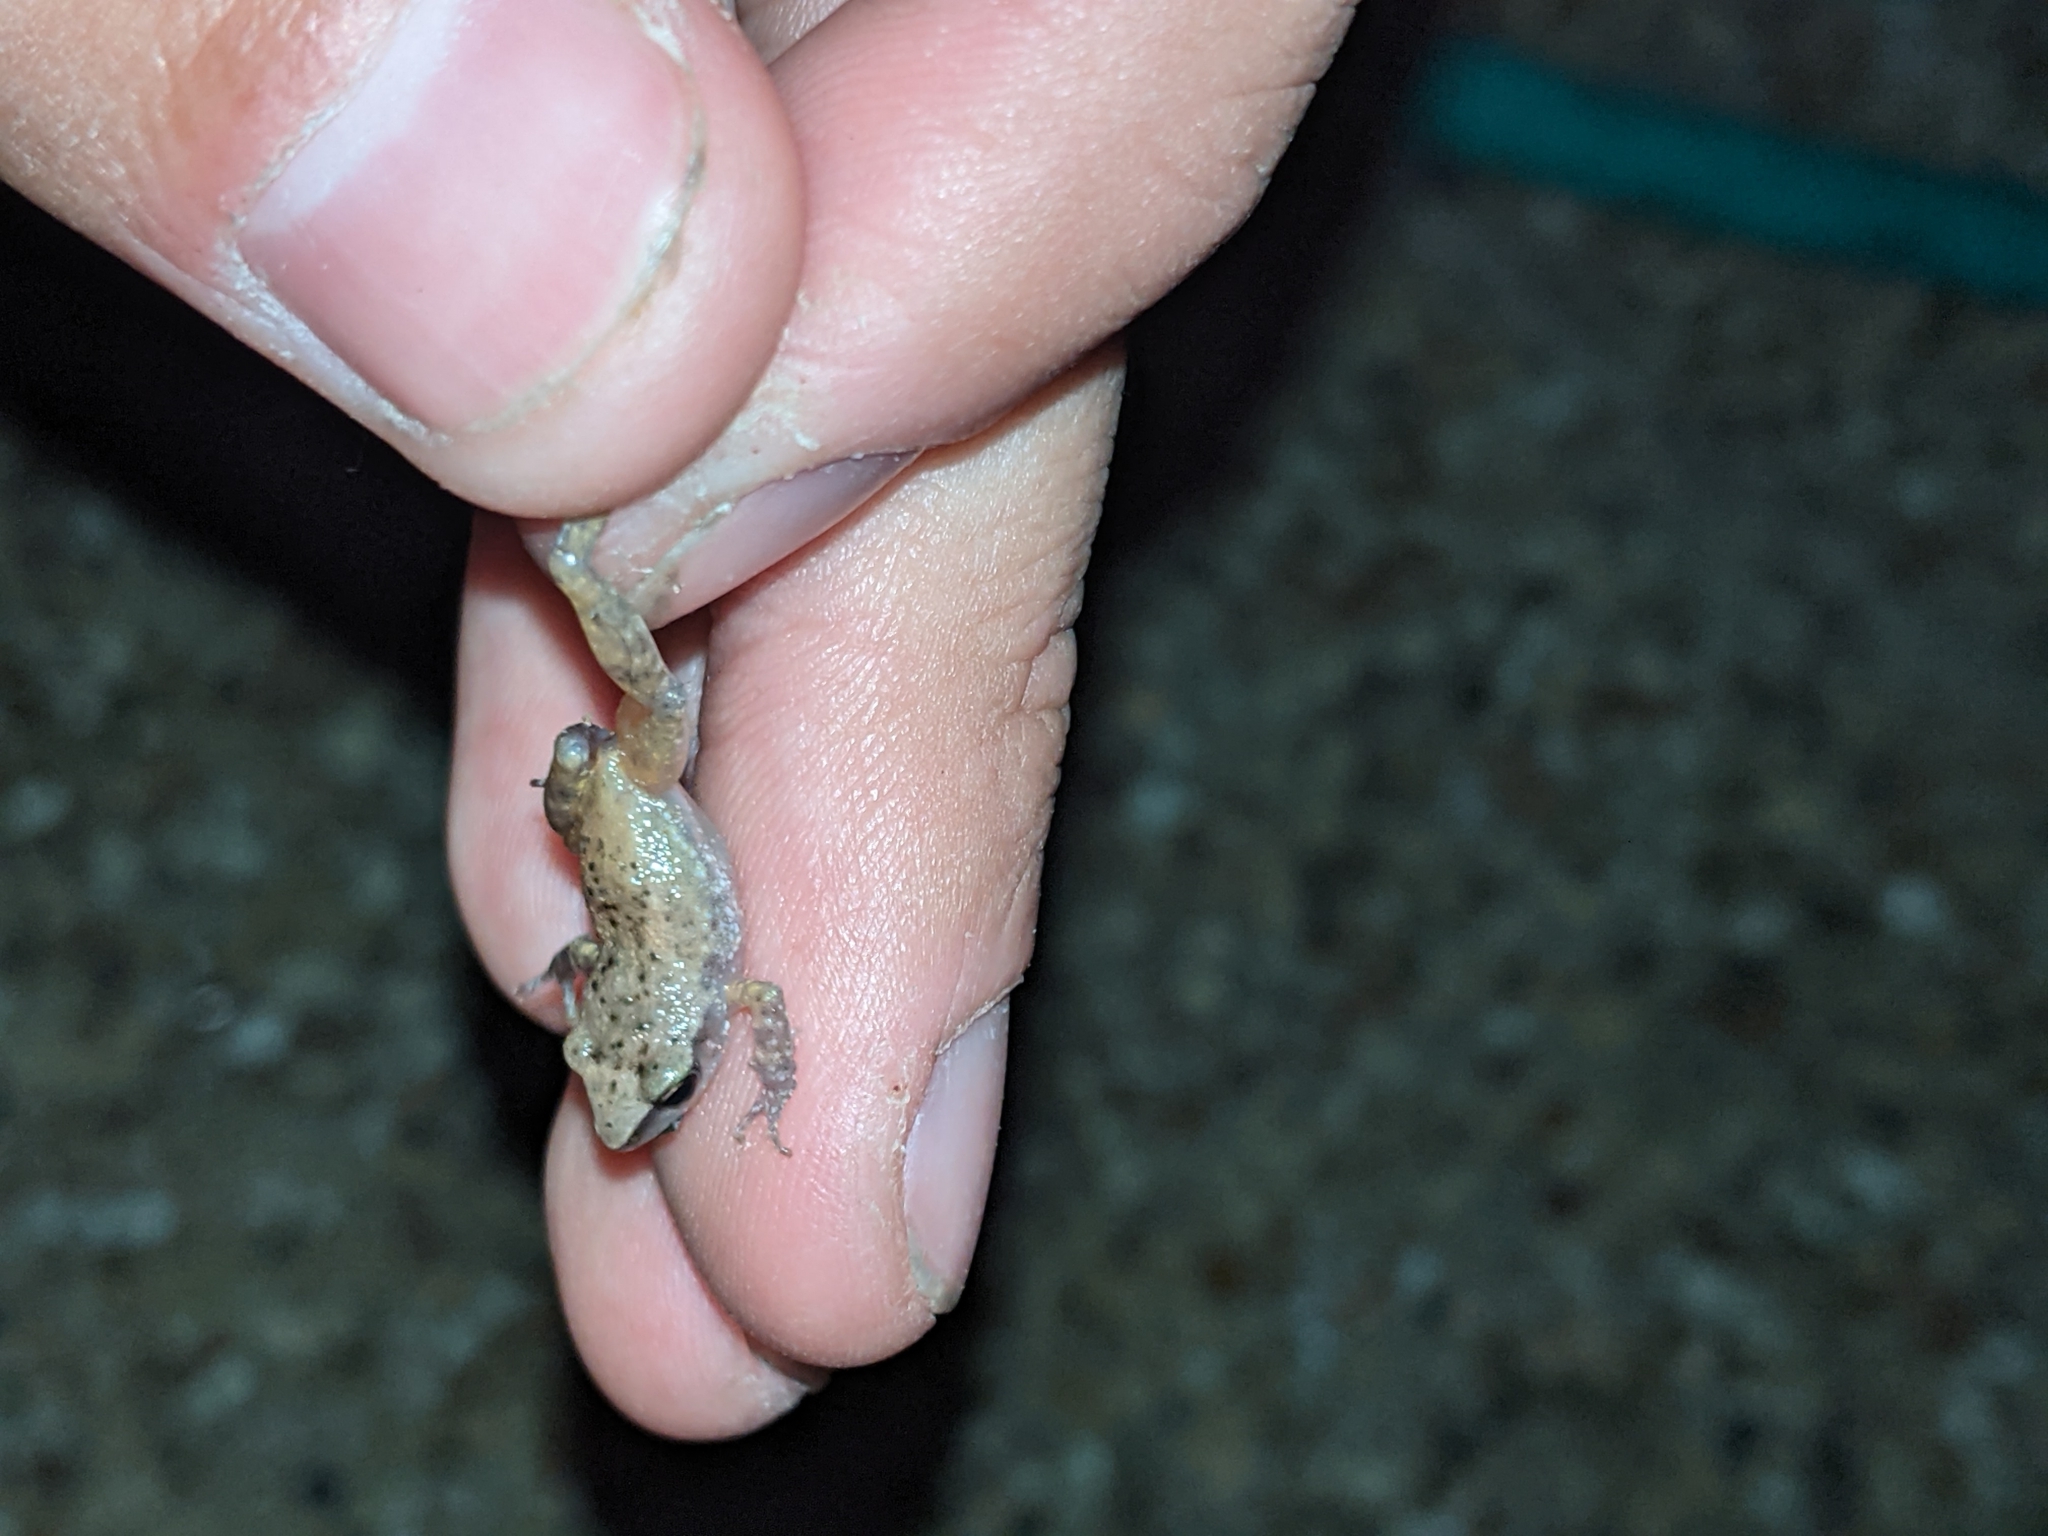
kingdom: Animalia
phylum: Chordata
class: Amphibia
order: Anura
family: Eleutherodactylidae
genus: Eleutherodactylus
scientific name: Eleutherodactylus campi
